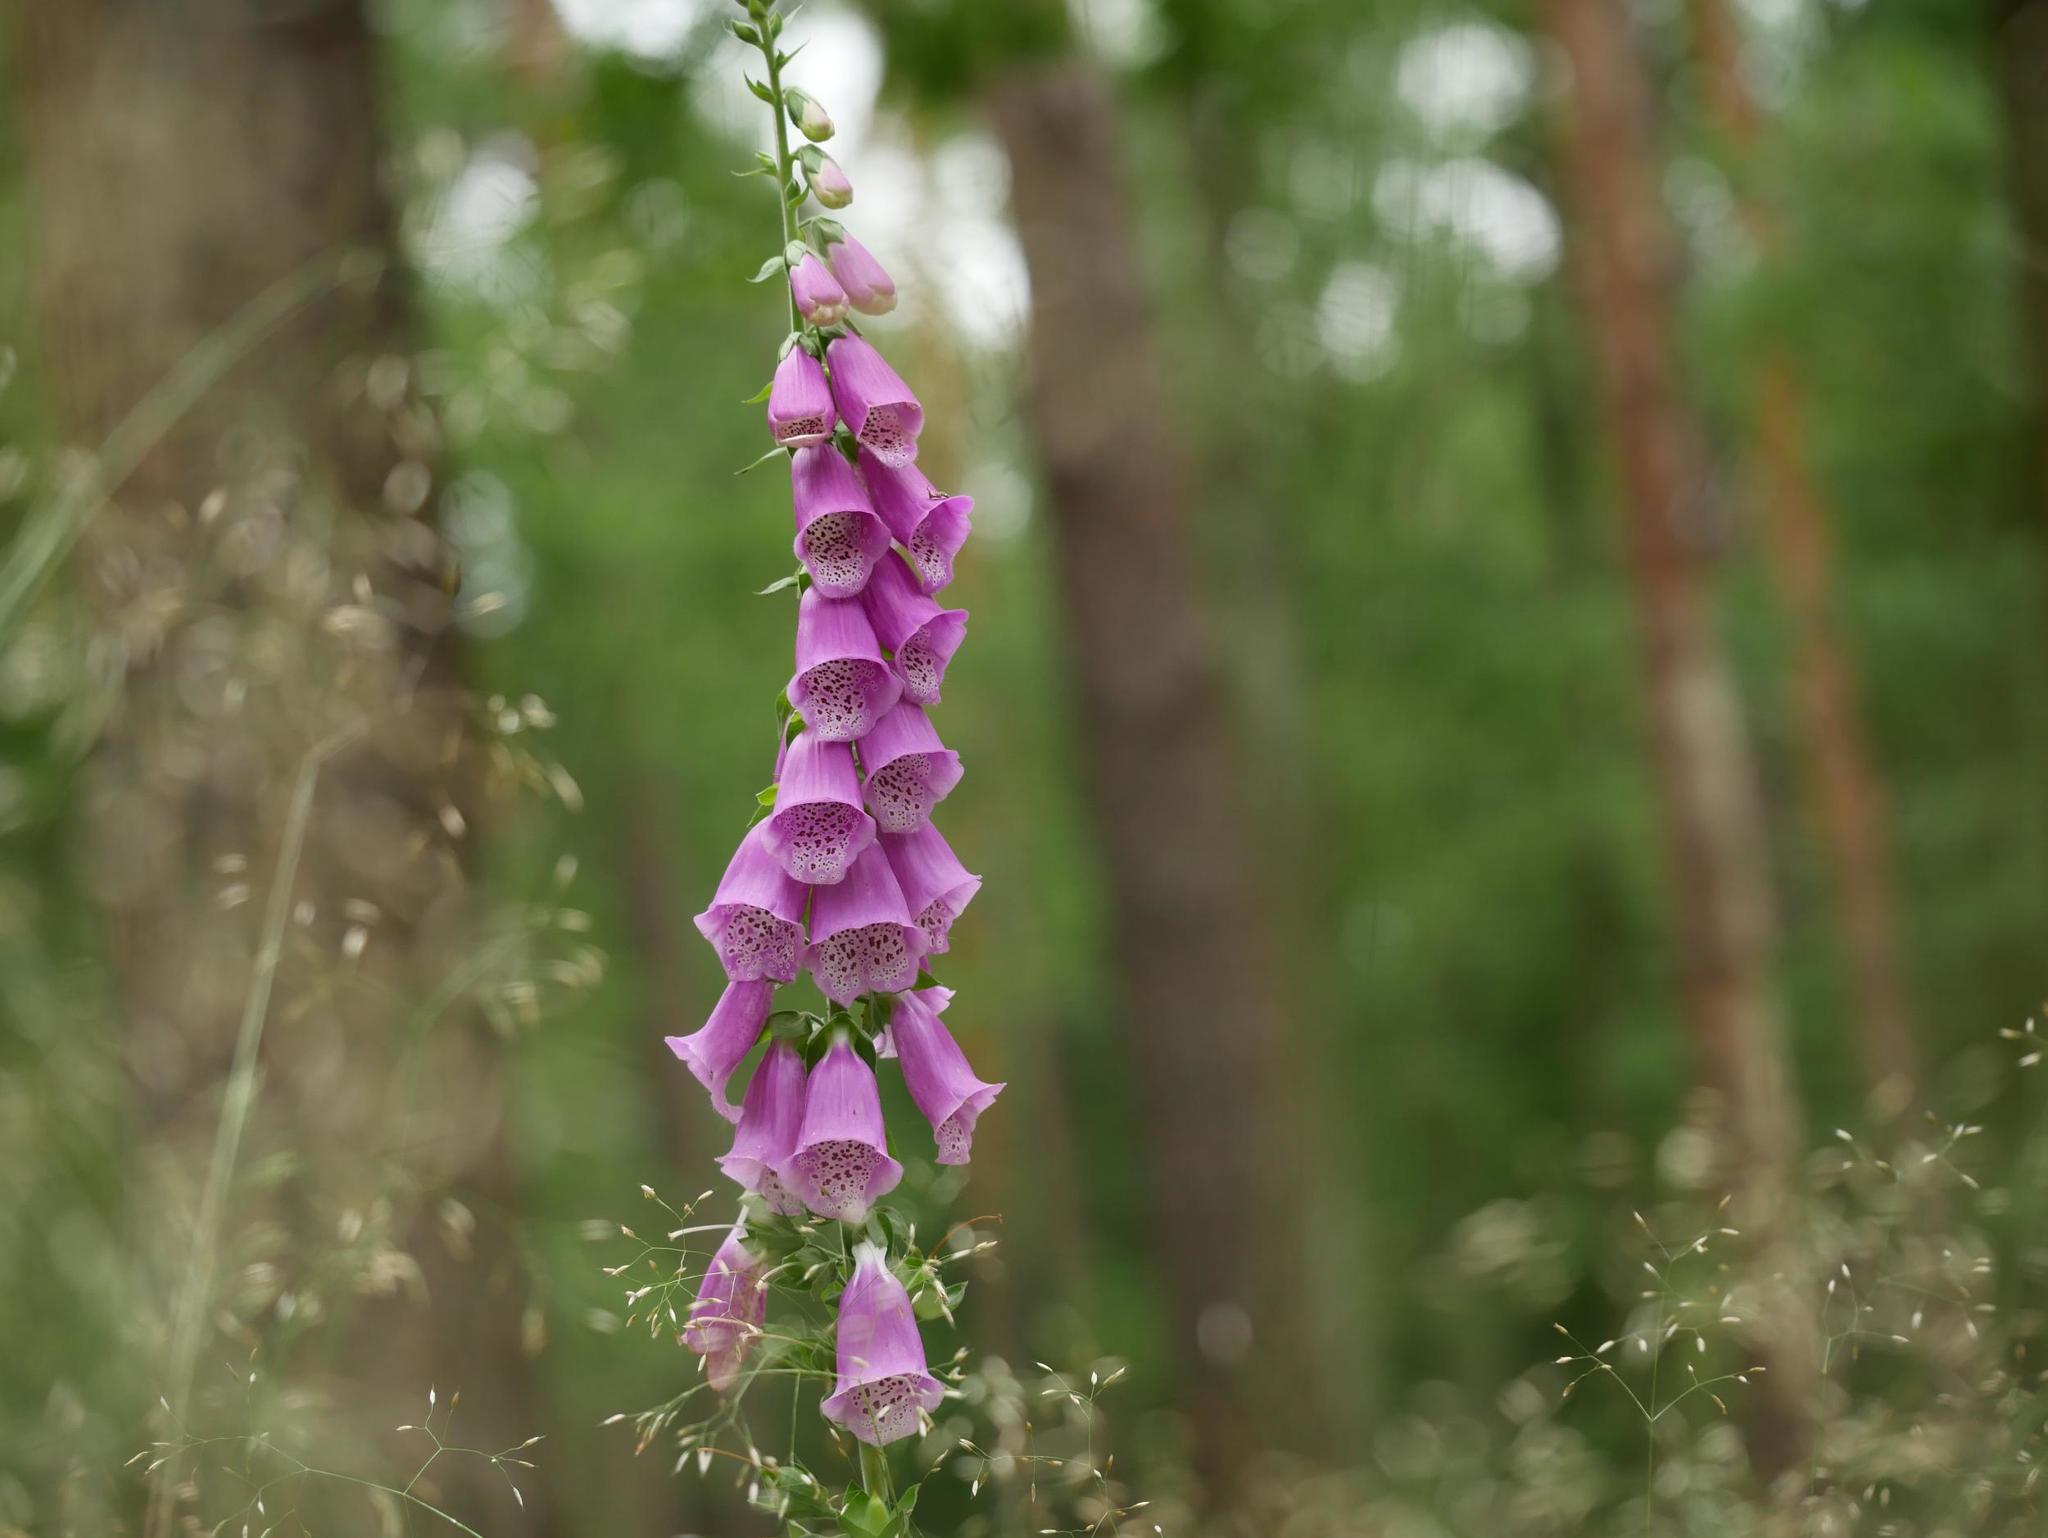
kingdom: Plantae
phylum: Tracheophyta
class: Magnoliopsida
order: Lamiales
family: Plantaginaceae
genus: Digitalis
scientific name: Digitalis purpurea
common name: Foxglove
